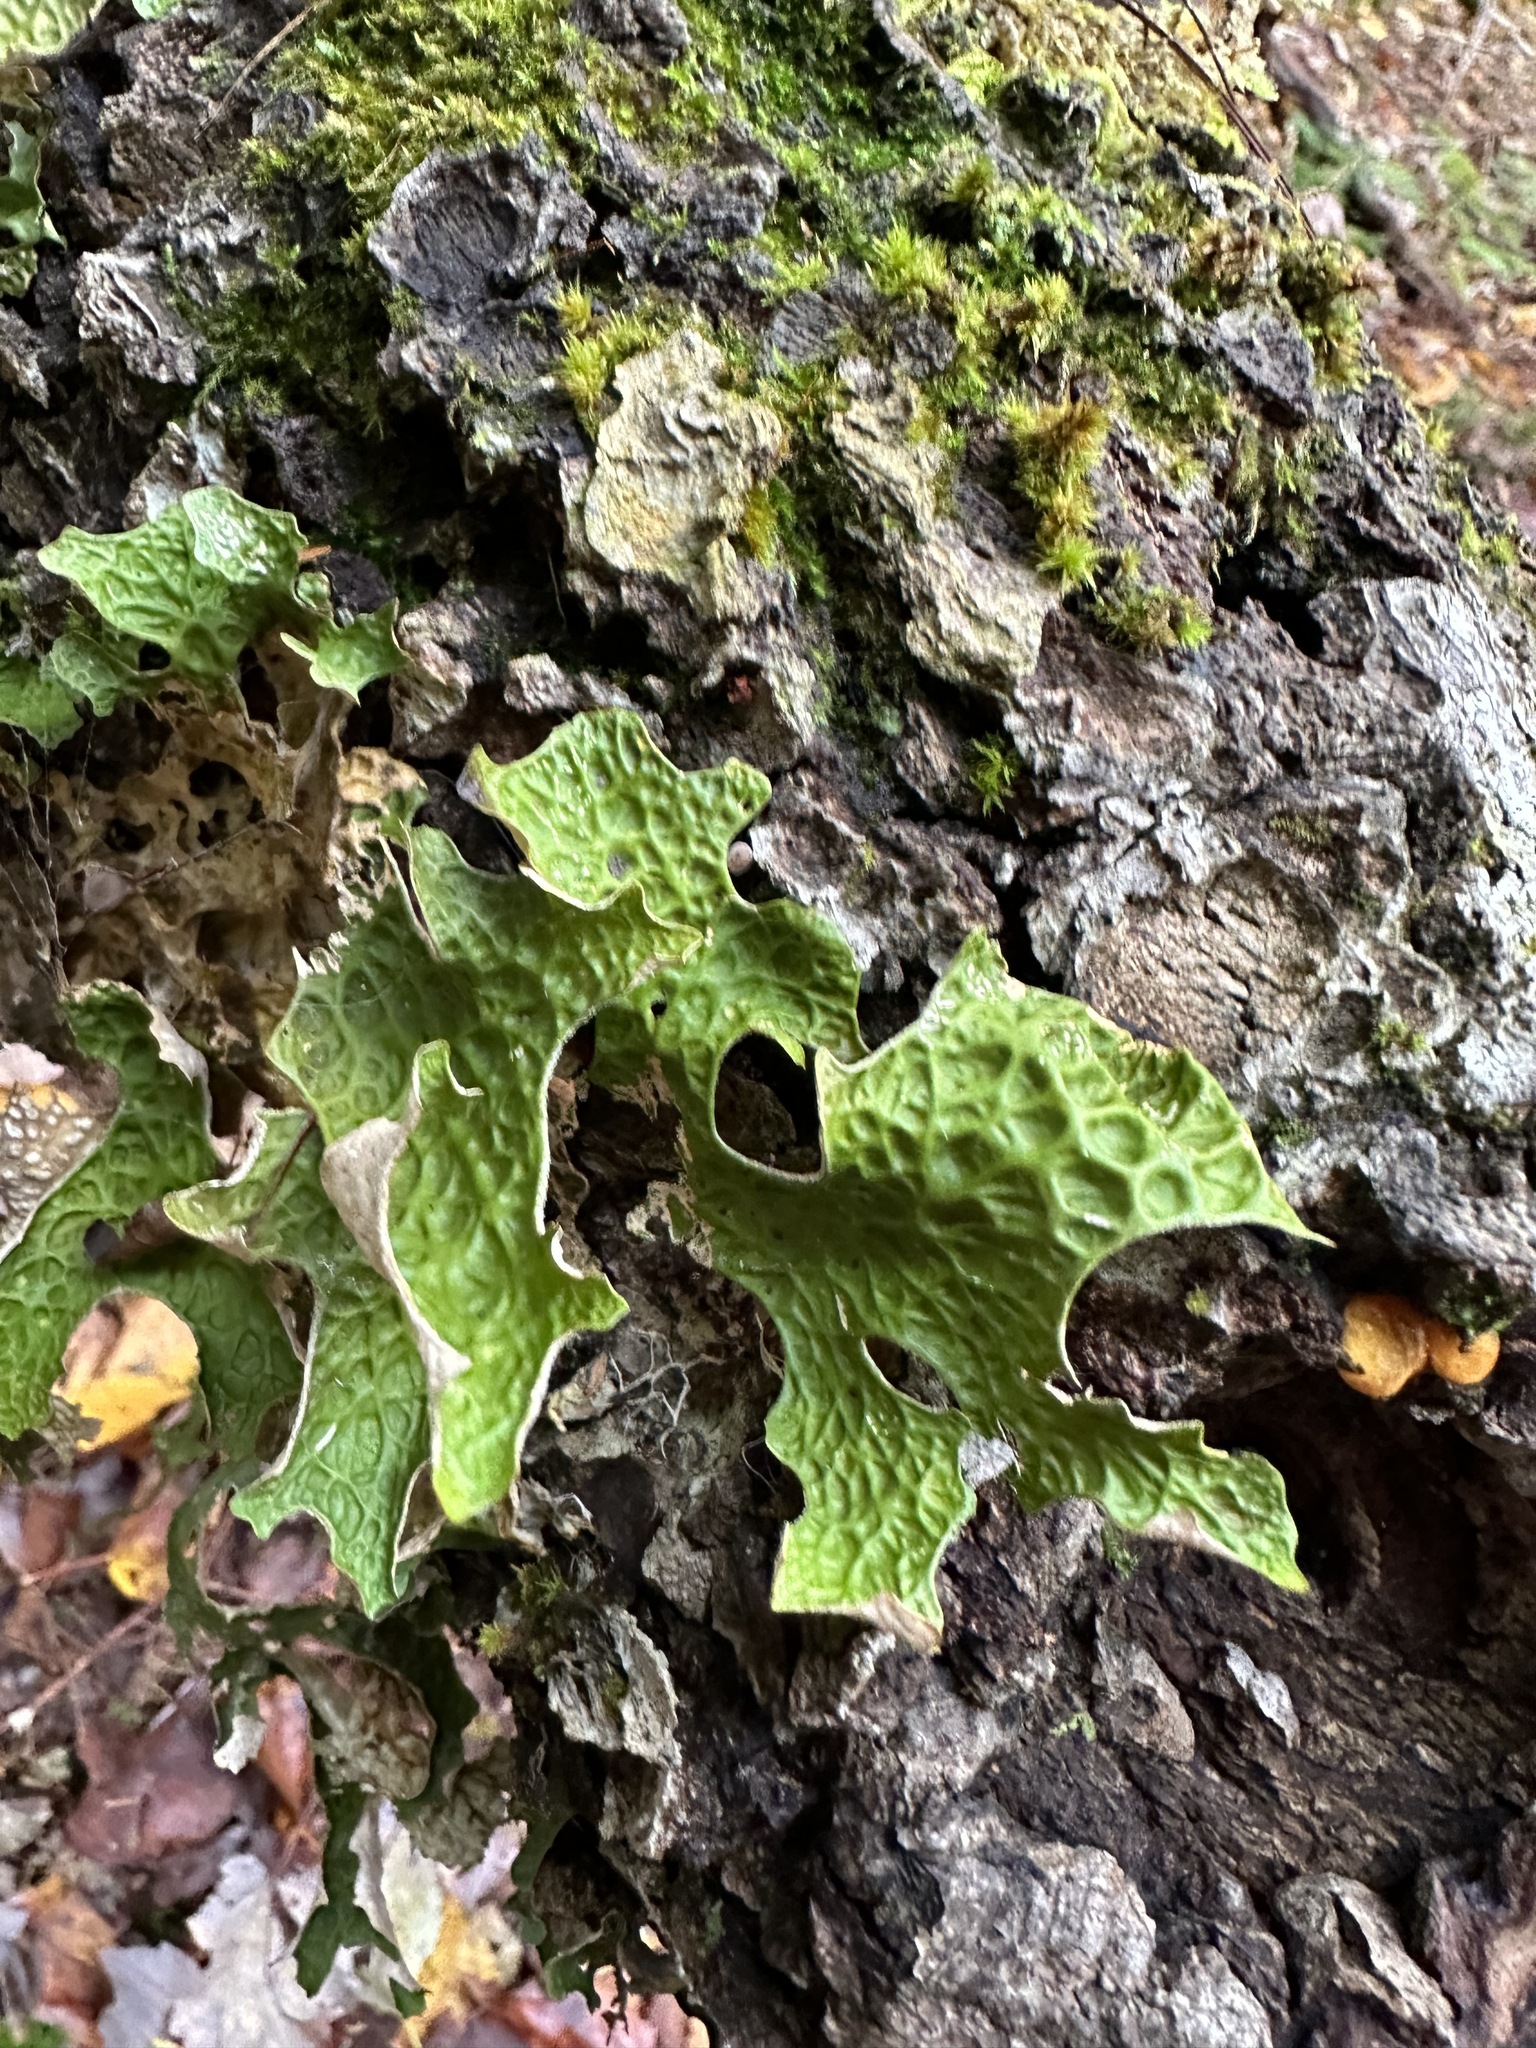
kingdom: Fungi
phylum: Ascomycota
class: Lecanoromycetes
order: Peltigerales
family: Lobariaceae
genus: Lobaria
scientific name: Lobaria pulmonaria
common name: Lungwort
